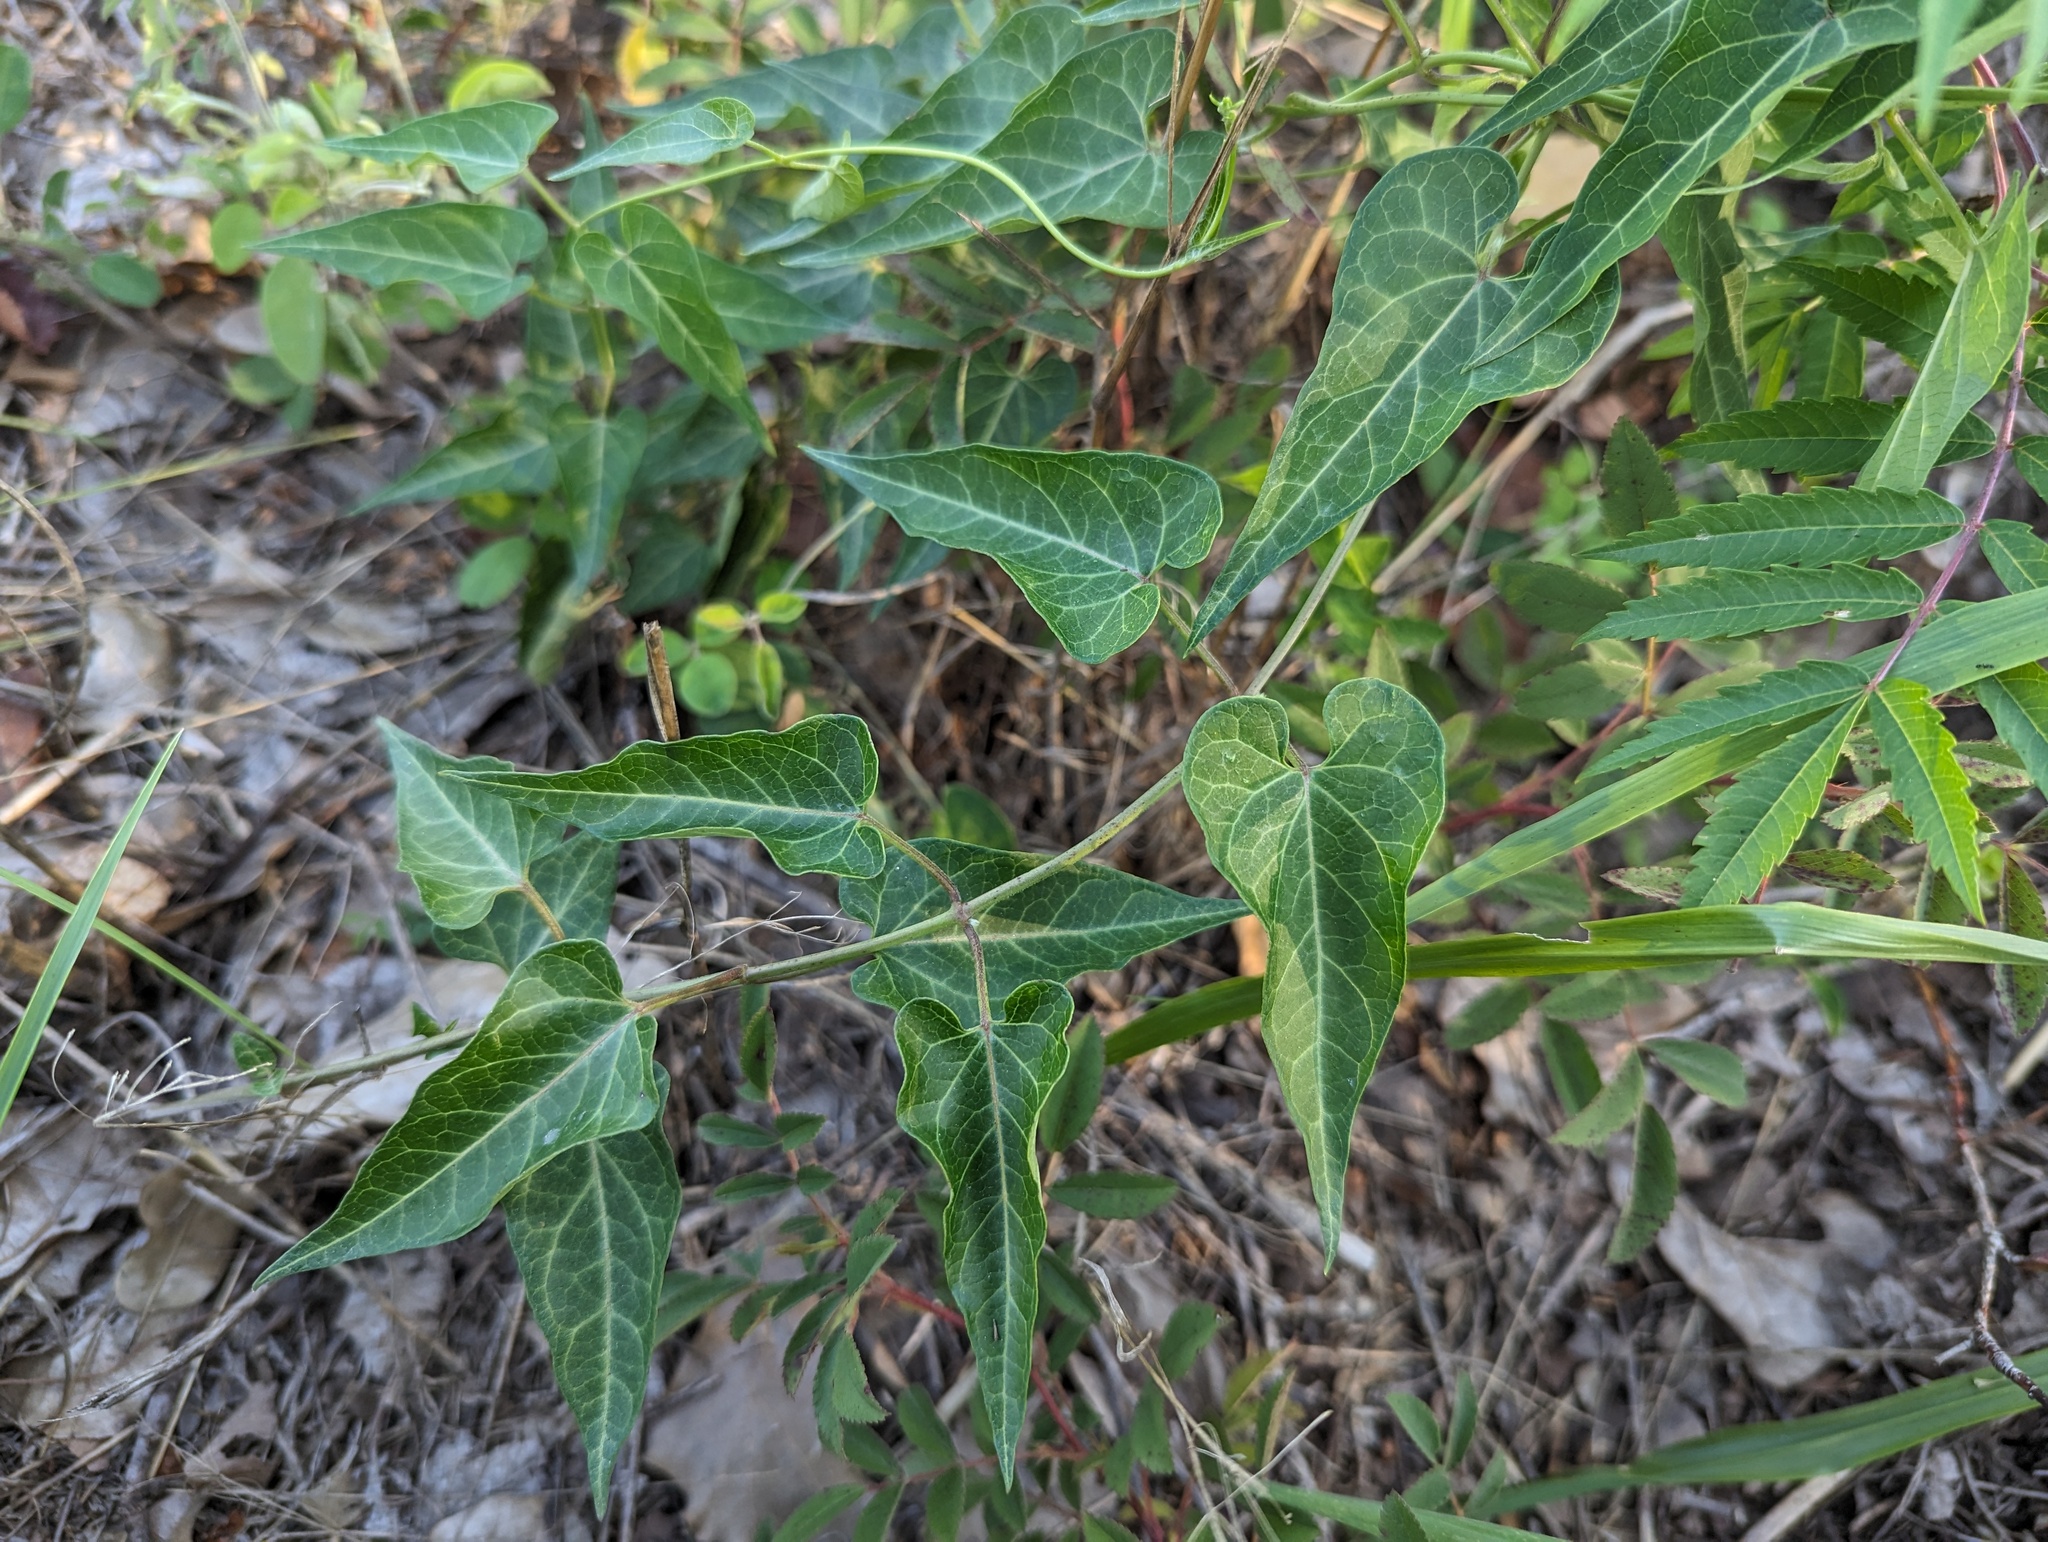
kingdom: Plantae
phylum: Tracheophyta
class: Magnoliopsida
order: Gentianales
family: Apocynaceae
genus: Cynanchum
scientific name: Cynanchum laeve
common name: Sandvine
